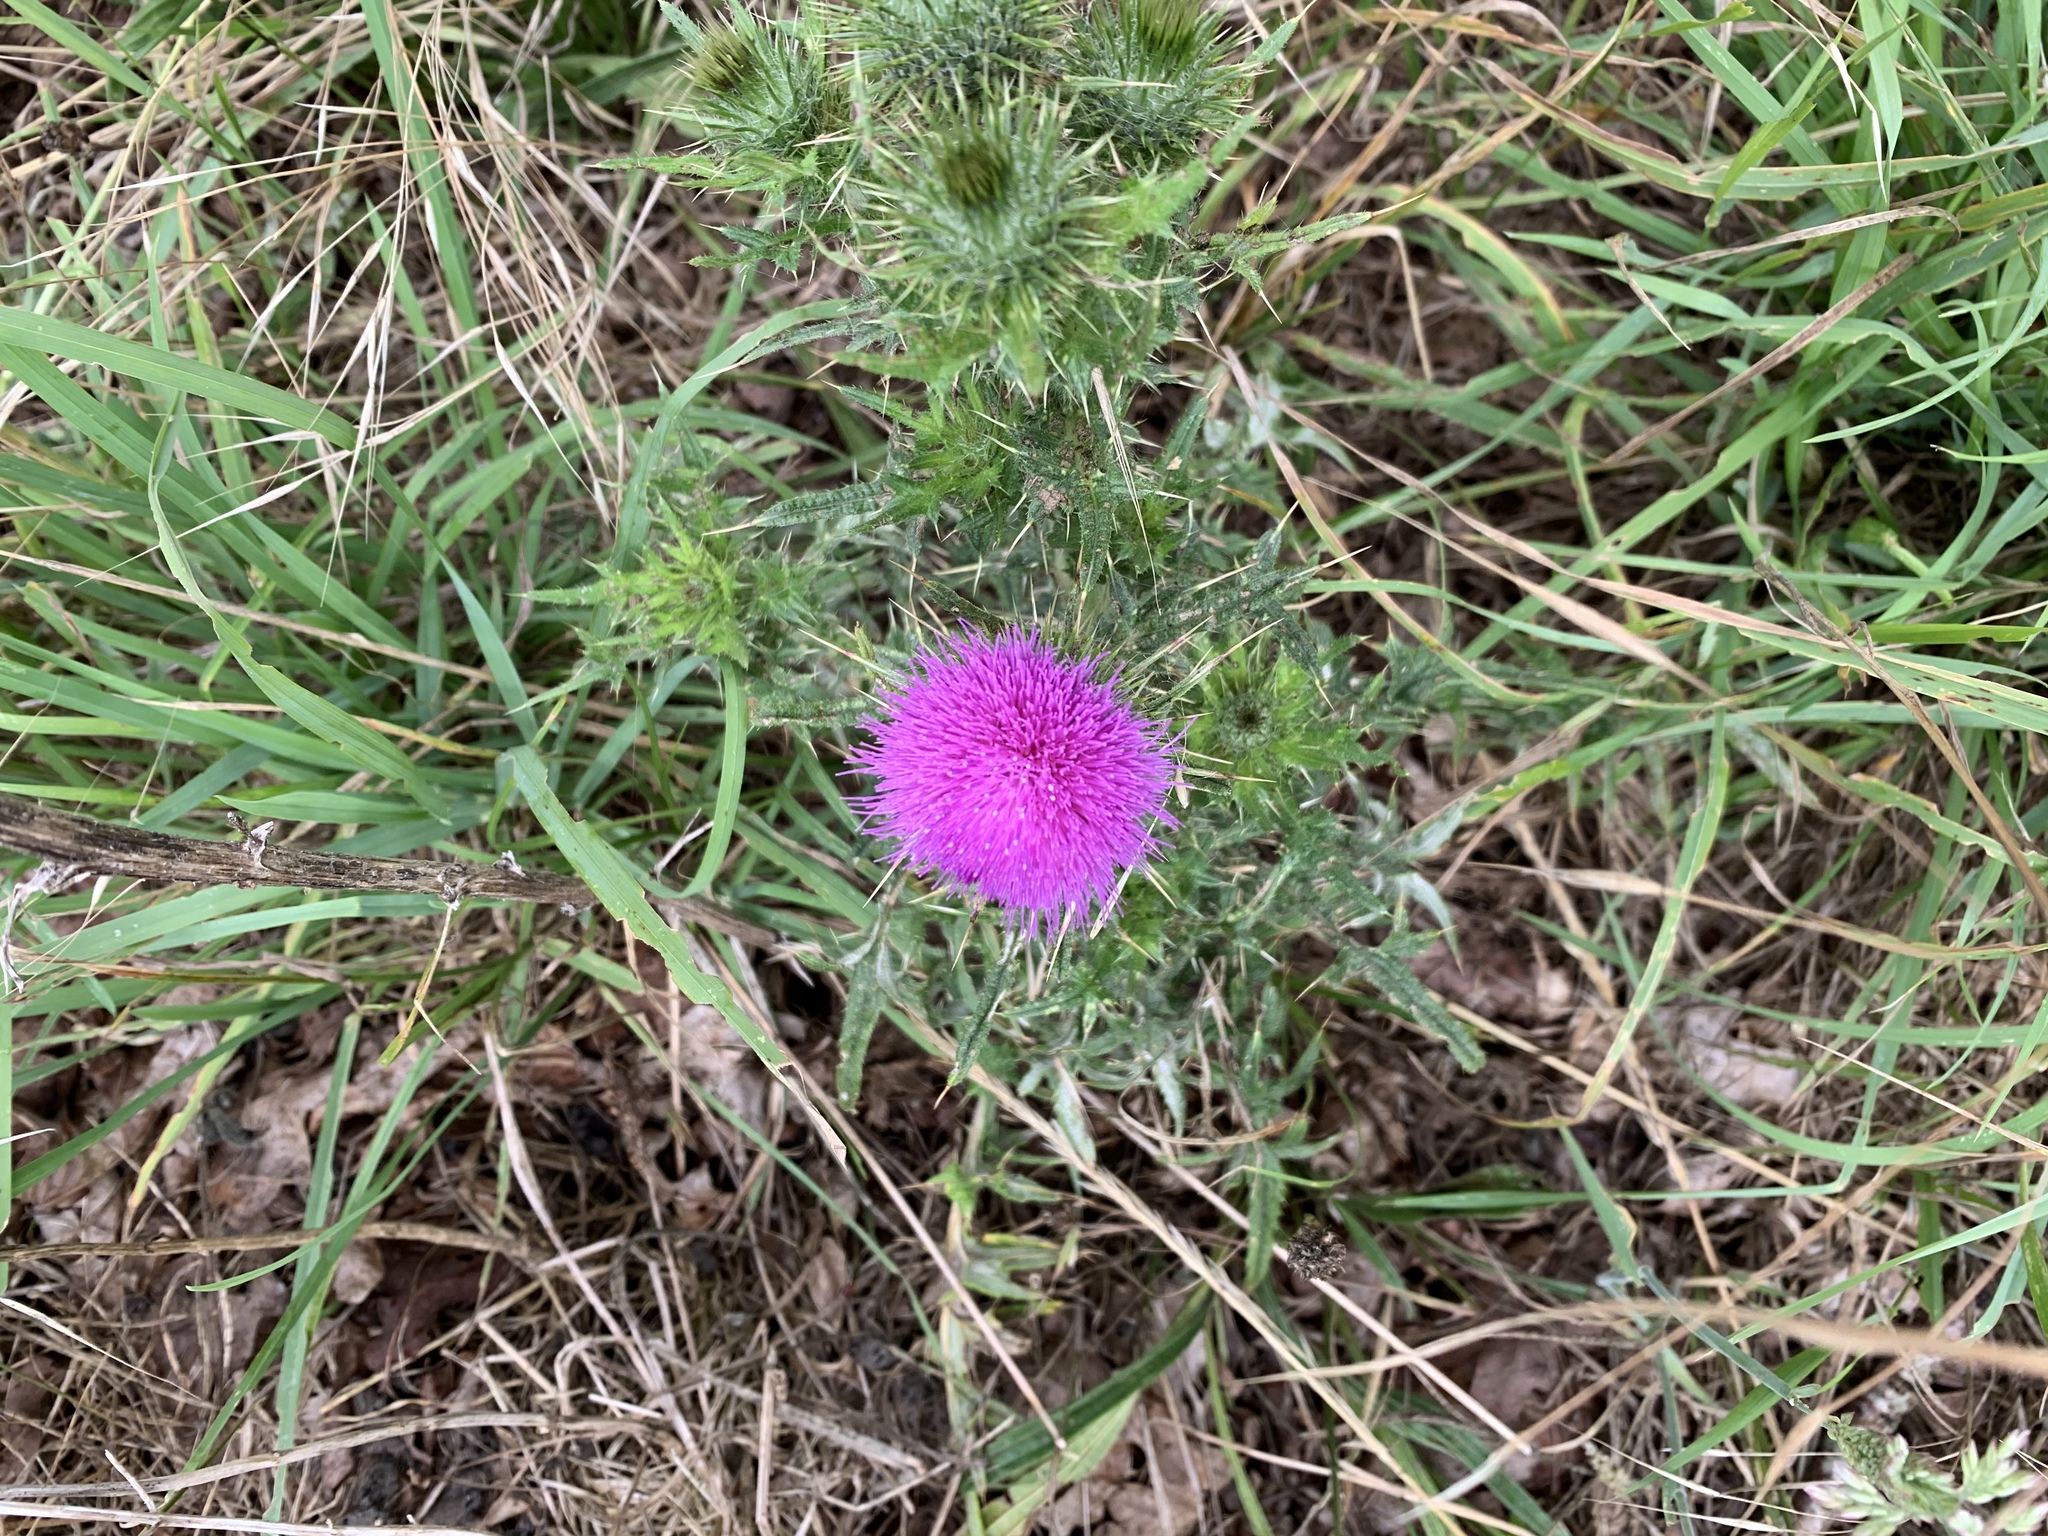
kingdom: Plantae
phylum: Tracheophyta
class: Magnoliopsida
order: Asterales
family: Asteraceae
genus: Cirsium
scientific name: Cirsium vulgare
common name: Bull thistle
